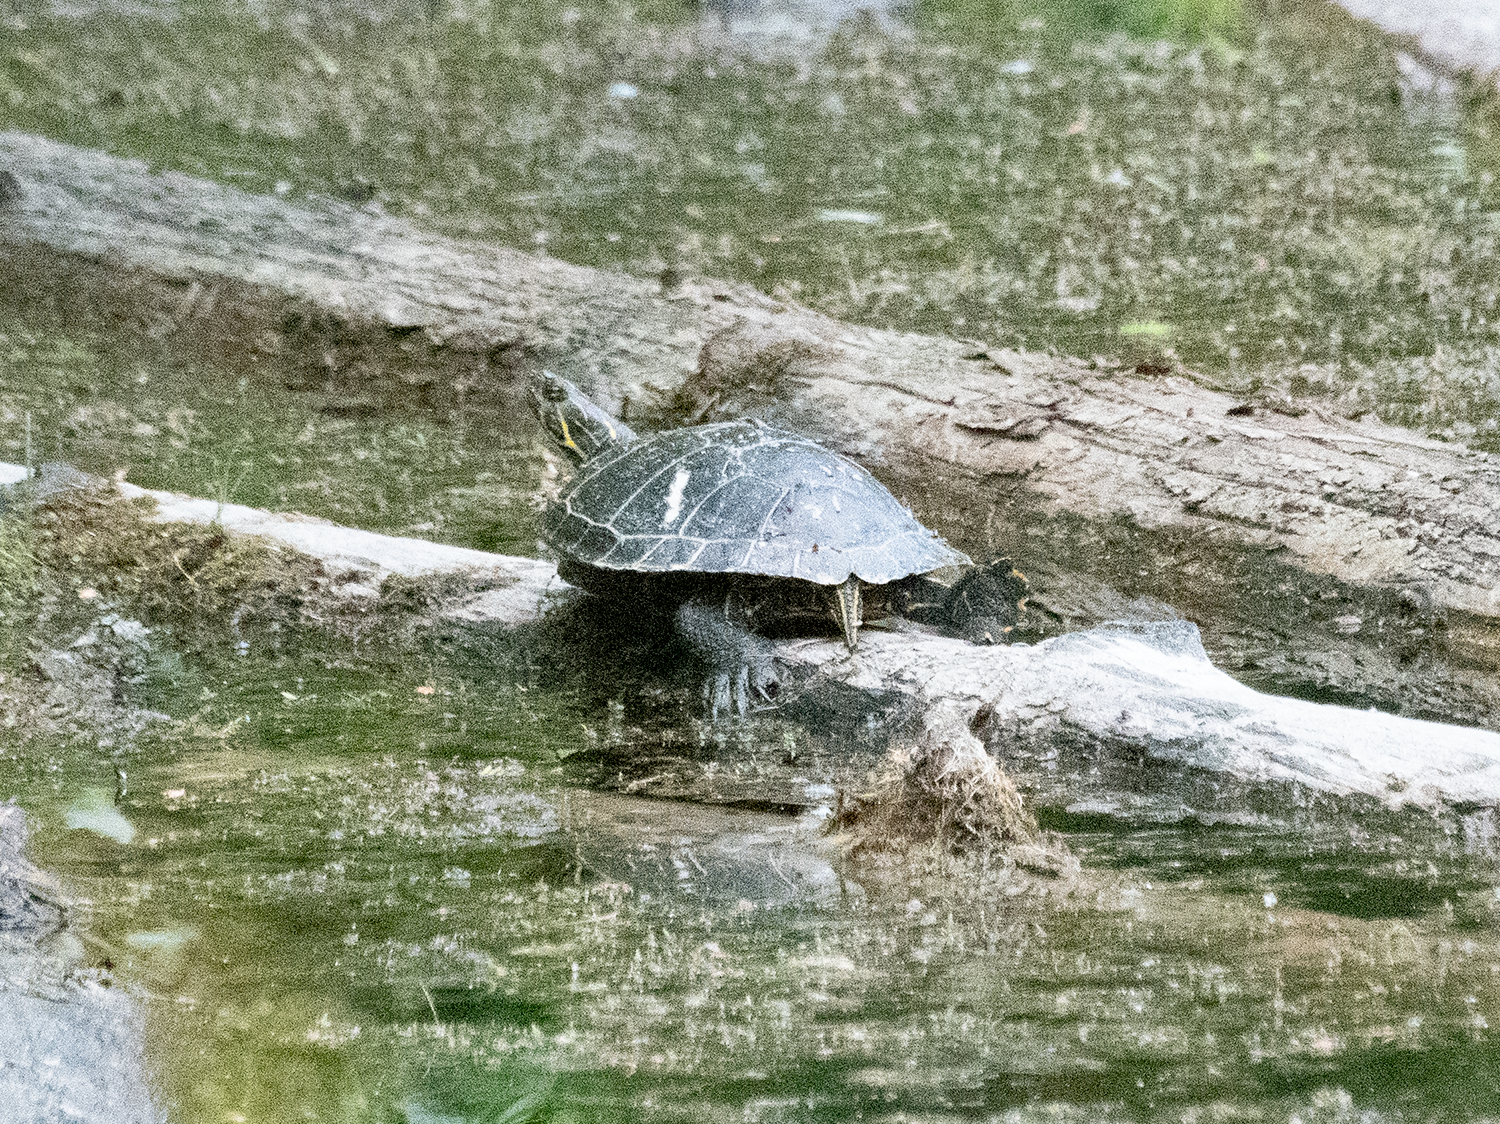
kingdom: Animalia
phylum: Chordata
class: Testudines
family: Emydidae
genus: Chrysemys
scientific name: Chrysemys picta
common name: Painted turtle
